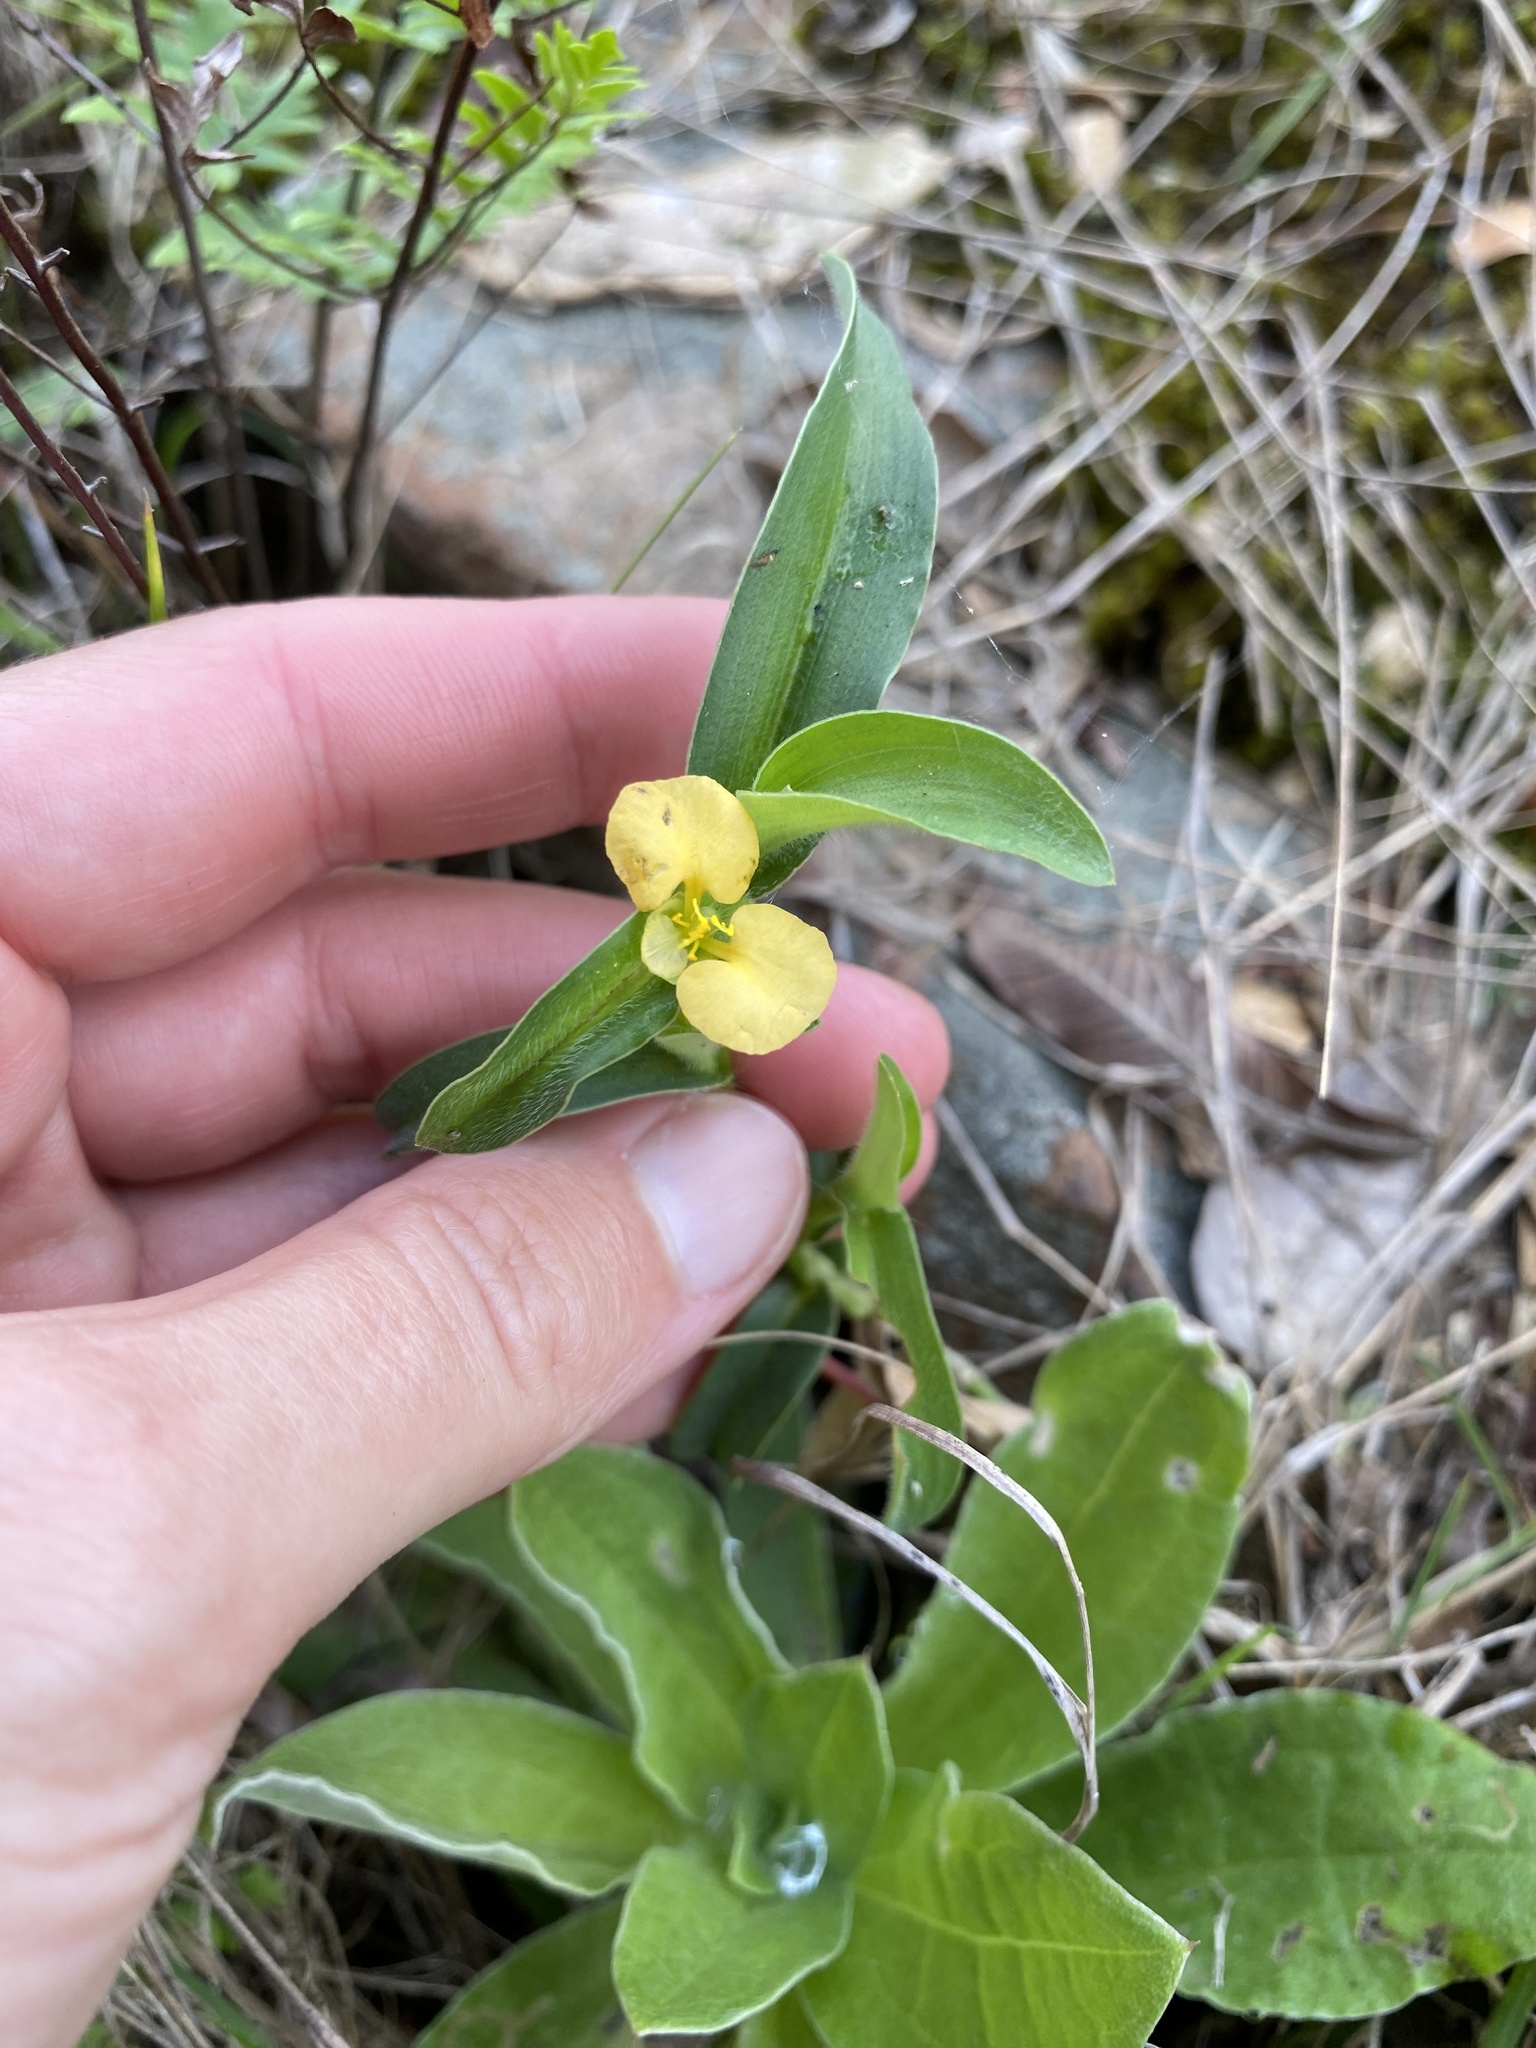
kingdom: Plantae
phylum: Tracheophyta
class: Liliopsida
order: Commelinales
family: Commelinaceae
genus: Commelina
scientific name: Commelina africana
